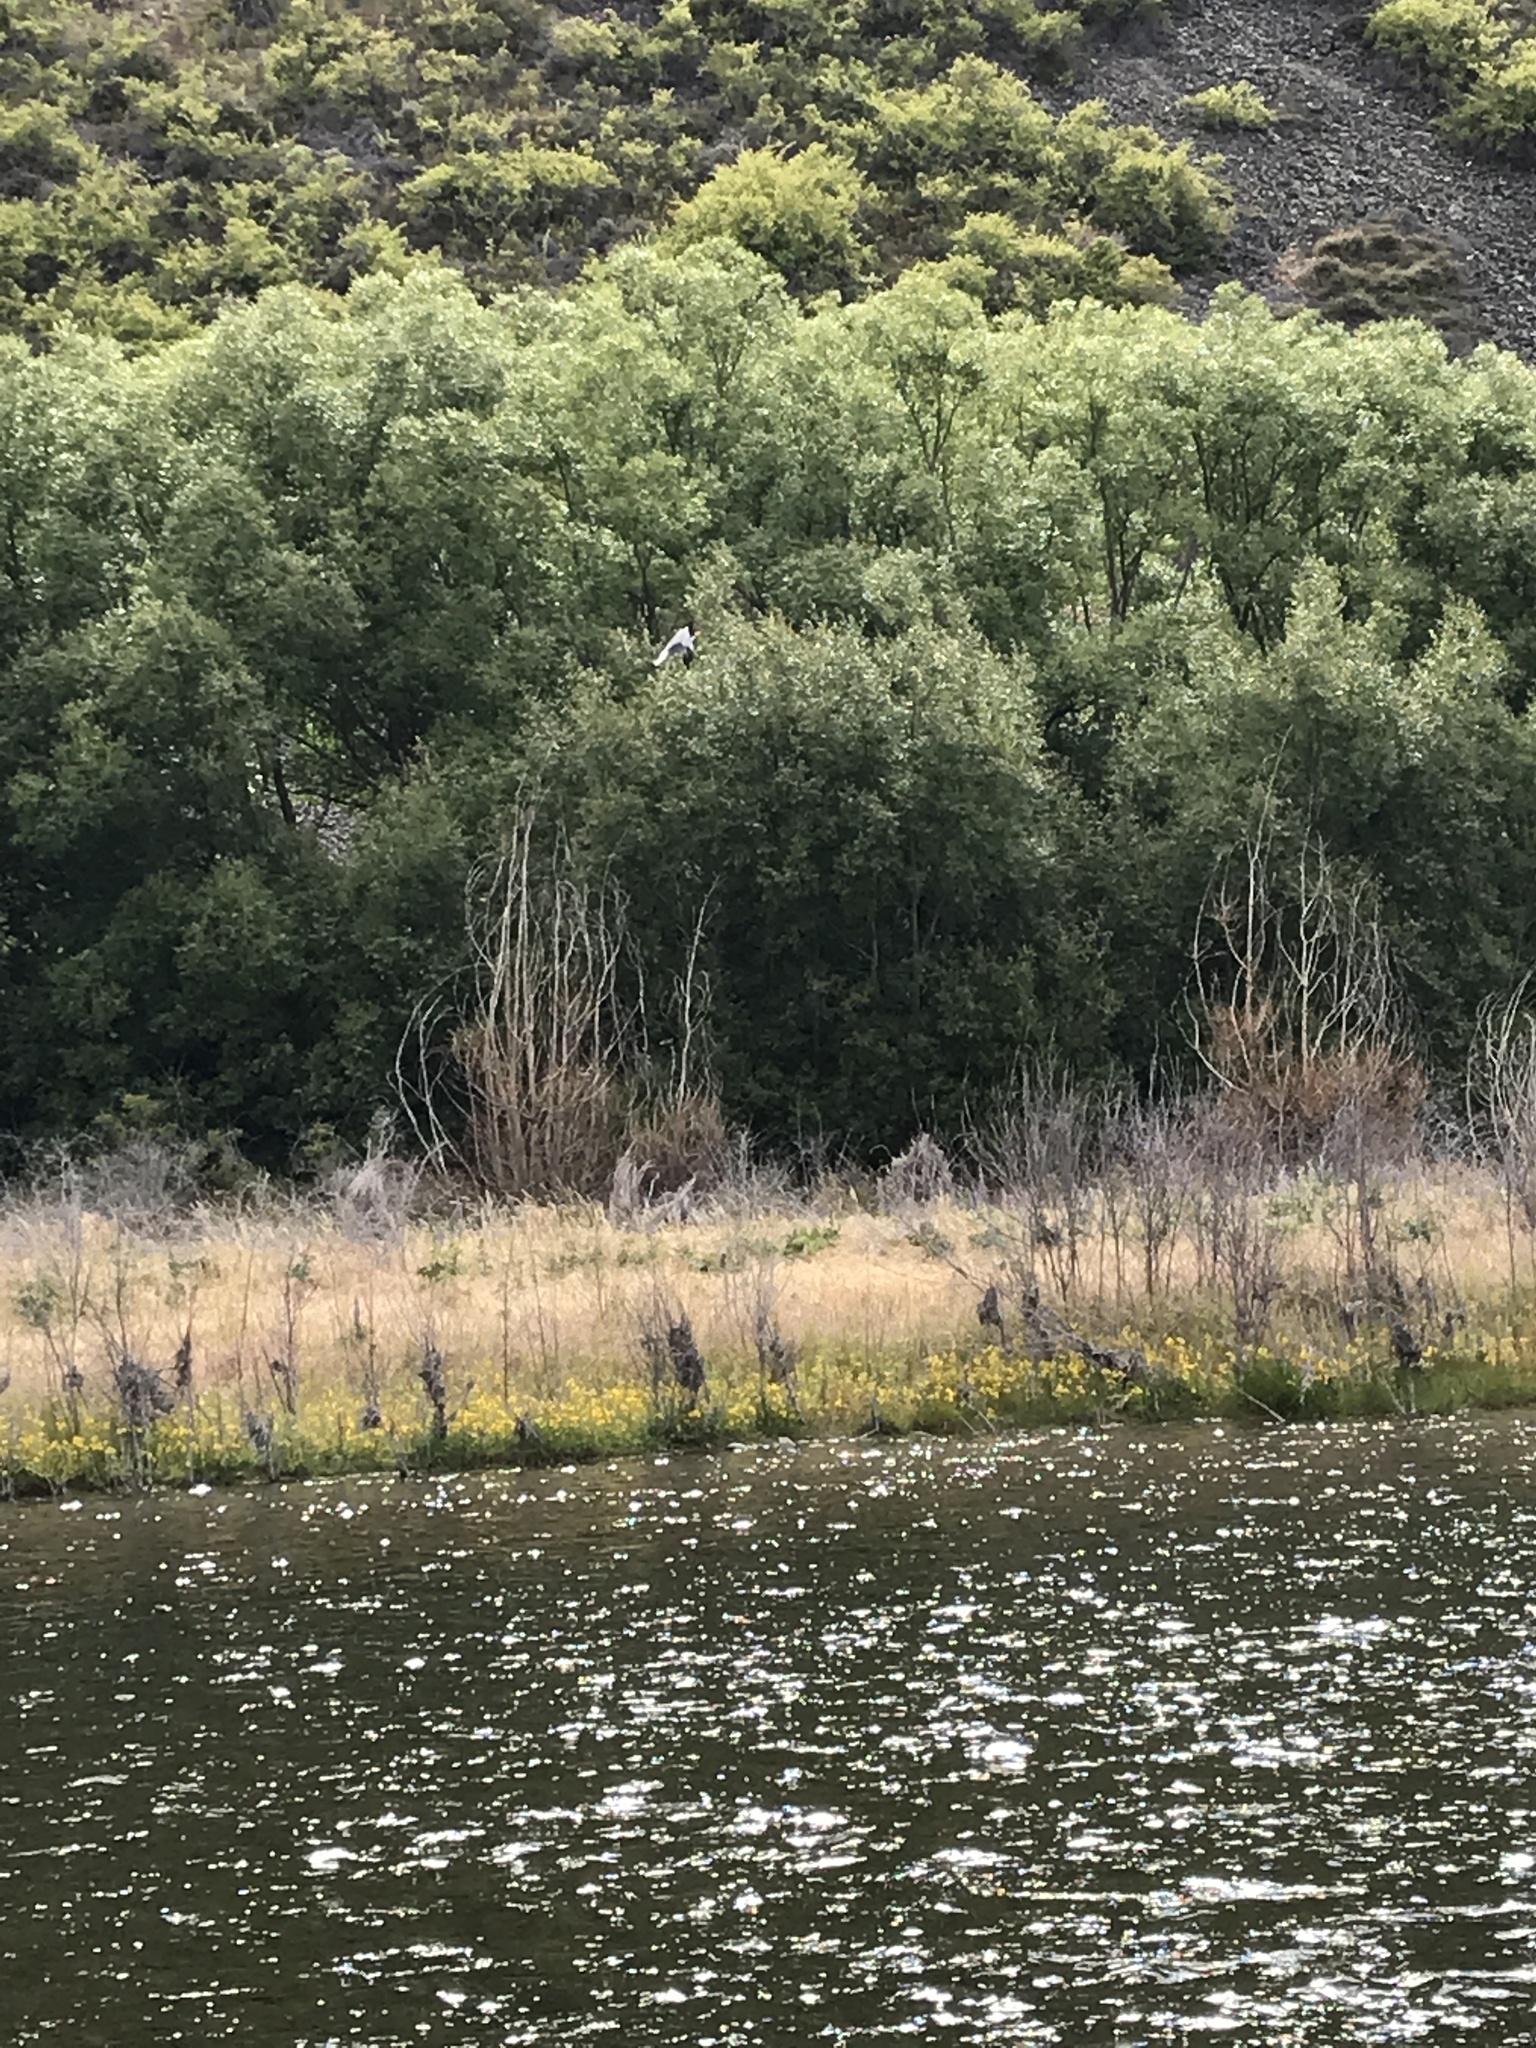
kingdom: Animalia
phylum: Chordata
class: Aves
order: Charadriiformes
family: Laridae
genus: Chlidonias
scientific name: Chlidonias albostriatus
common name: Black-fronted tern
